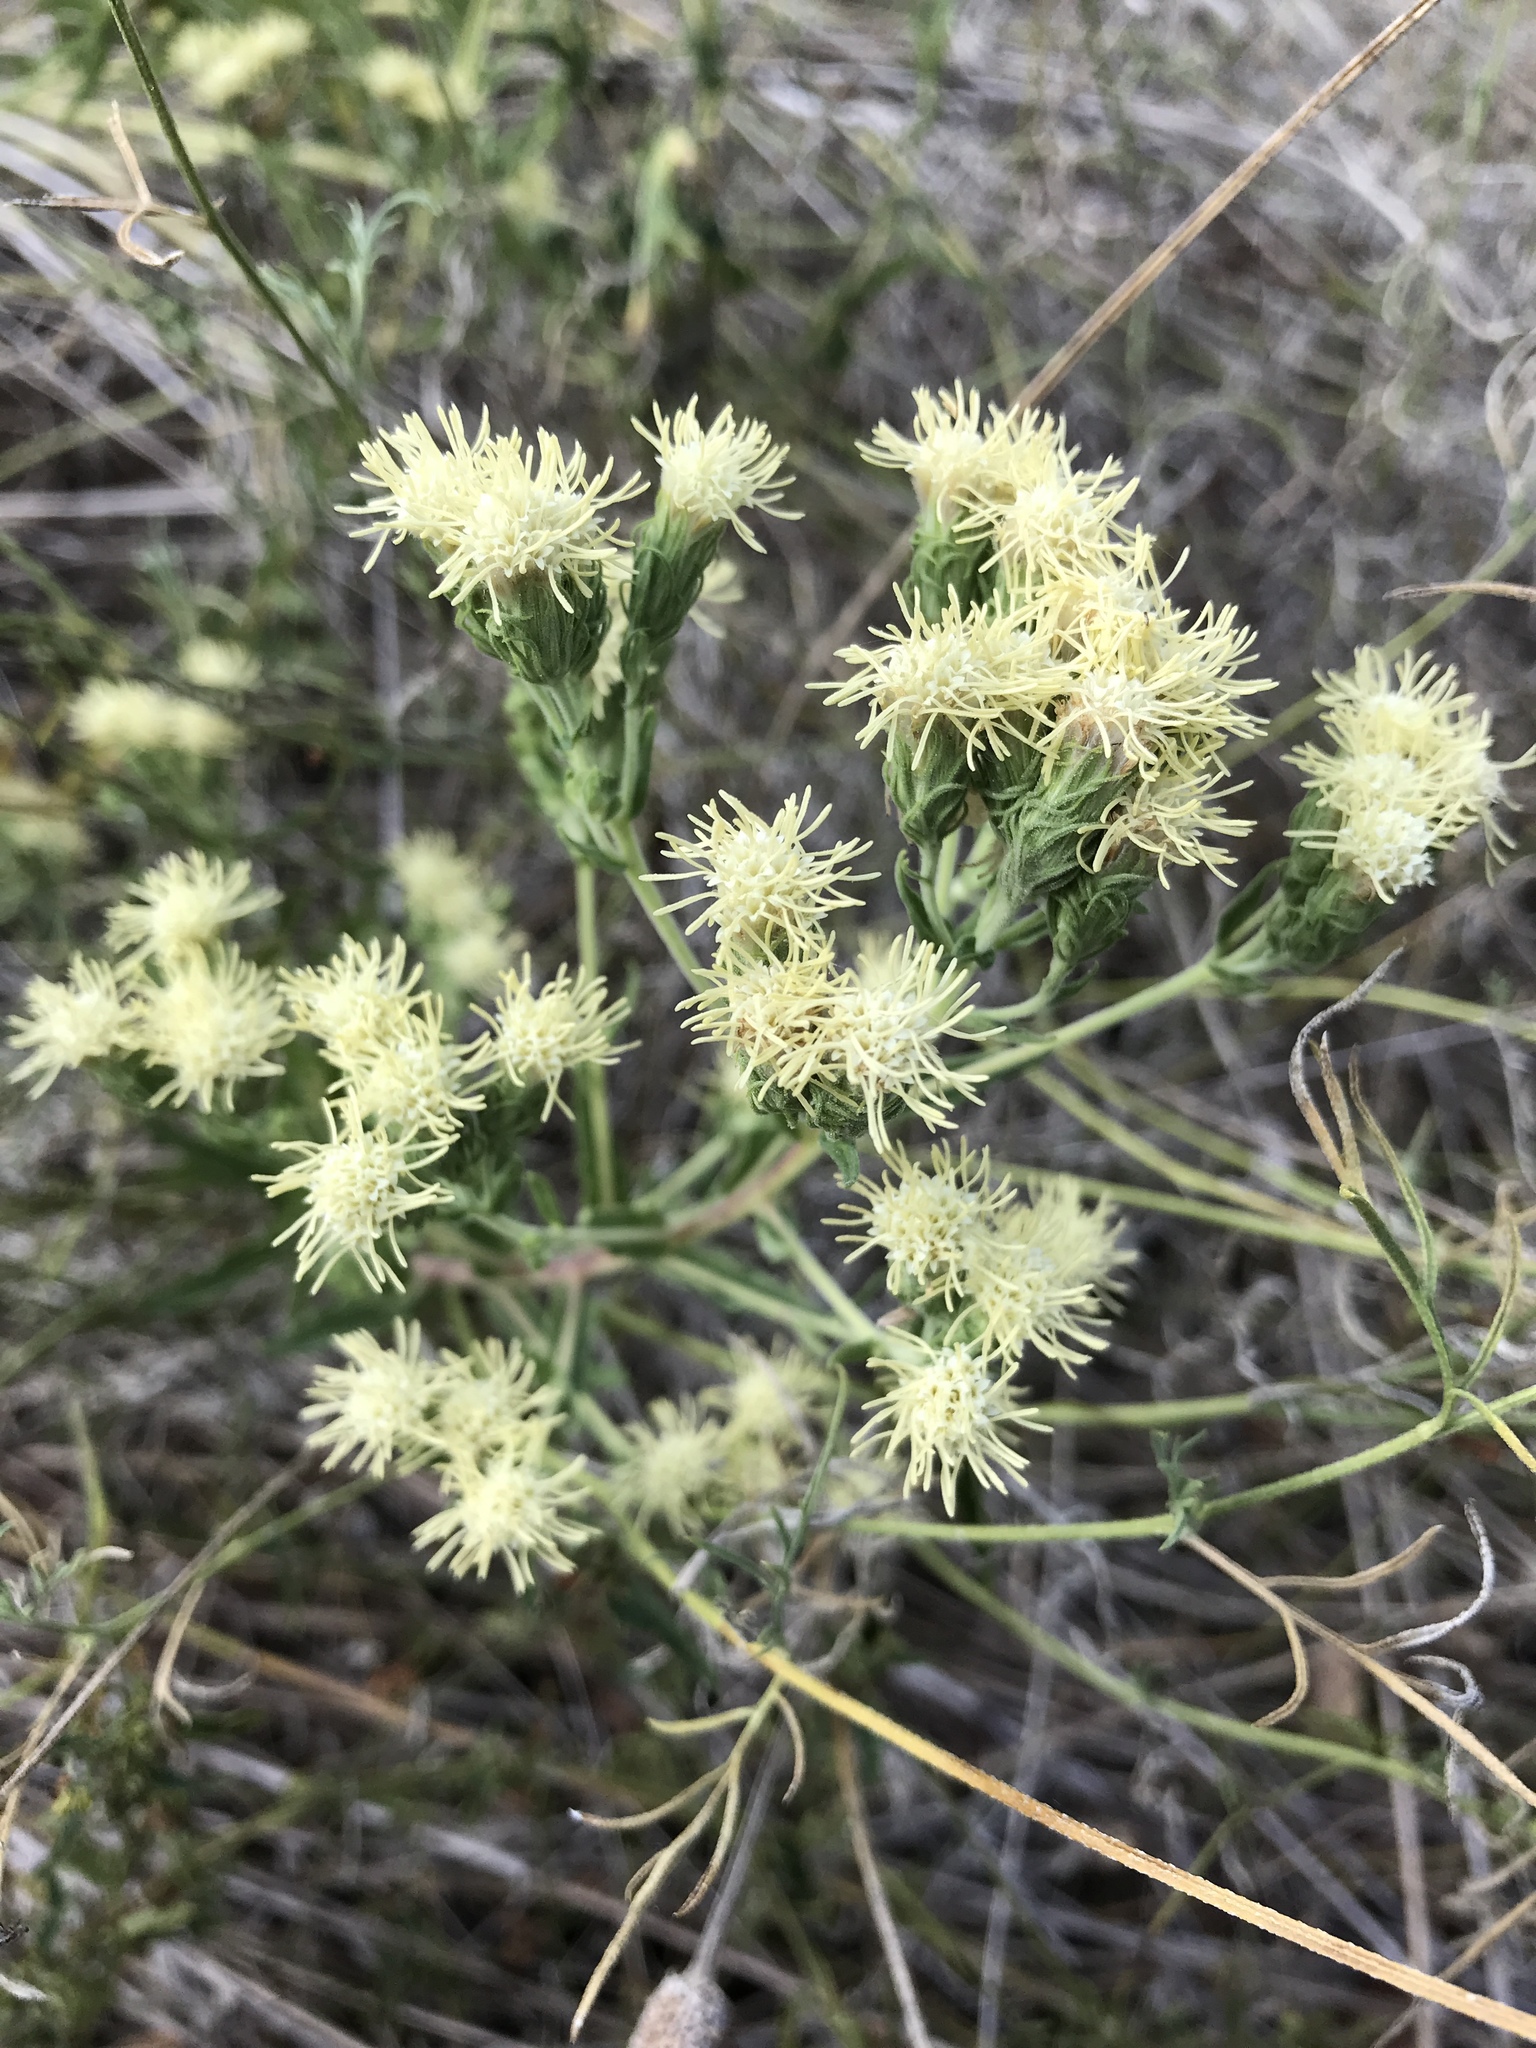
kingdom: Plantae
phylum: Tracheophyta
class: Magnoliopsida
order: Asterales
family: Asteraceae
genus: Brickellia
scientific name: Brickellia eupatorioides
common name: False boneset
